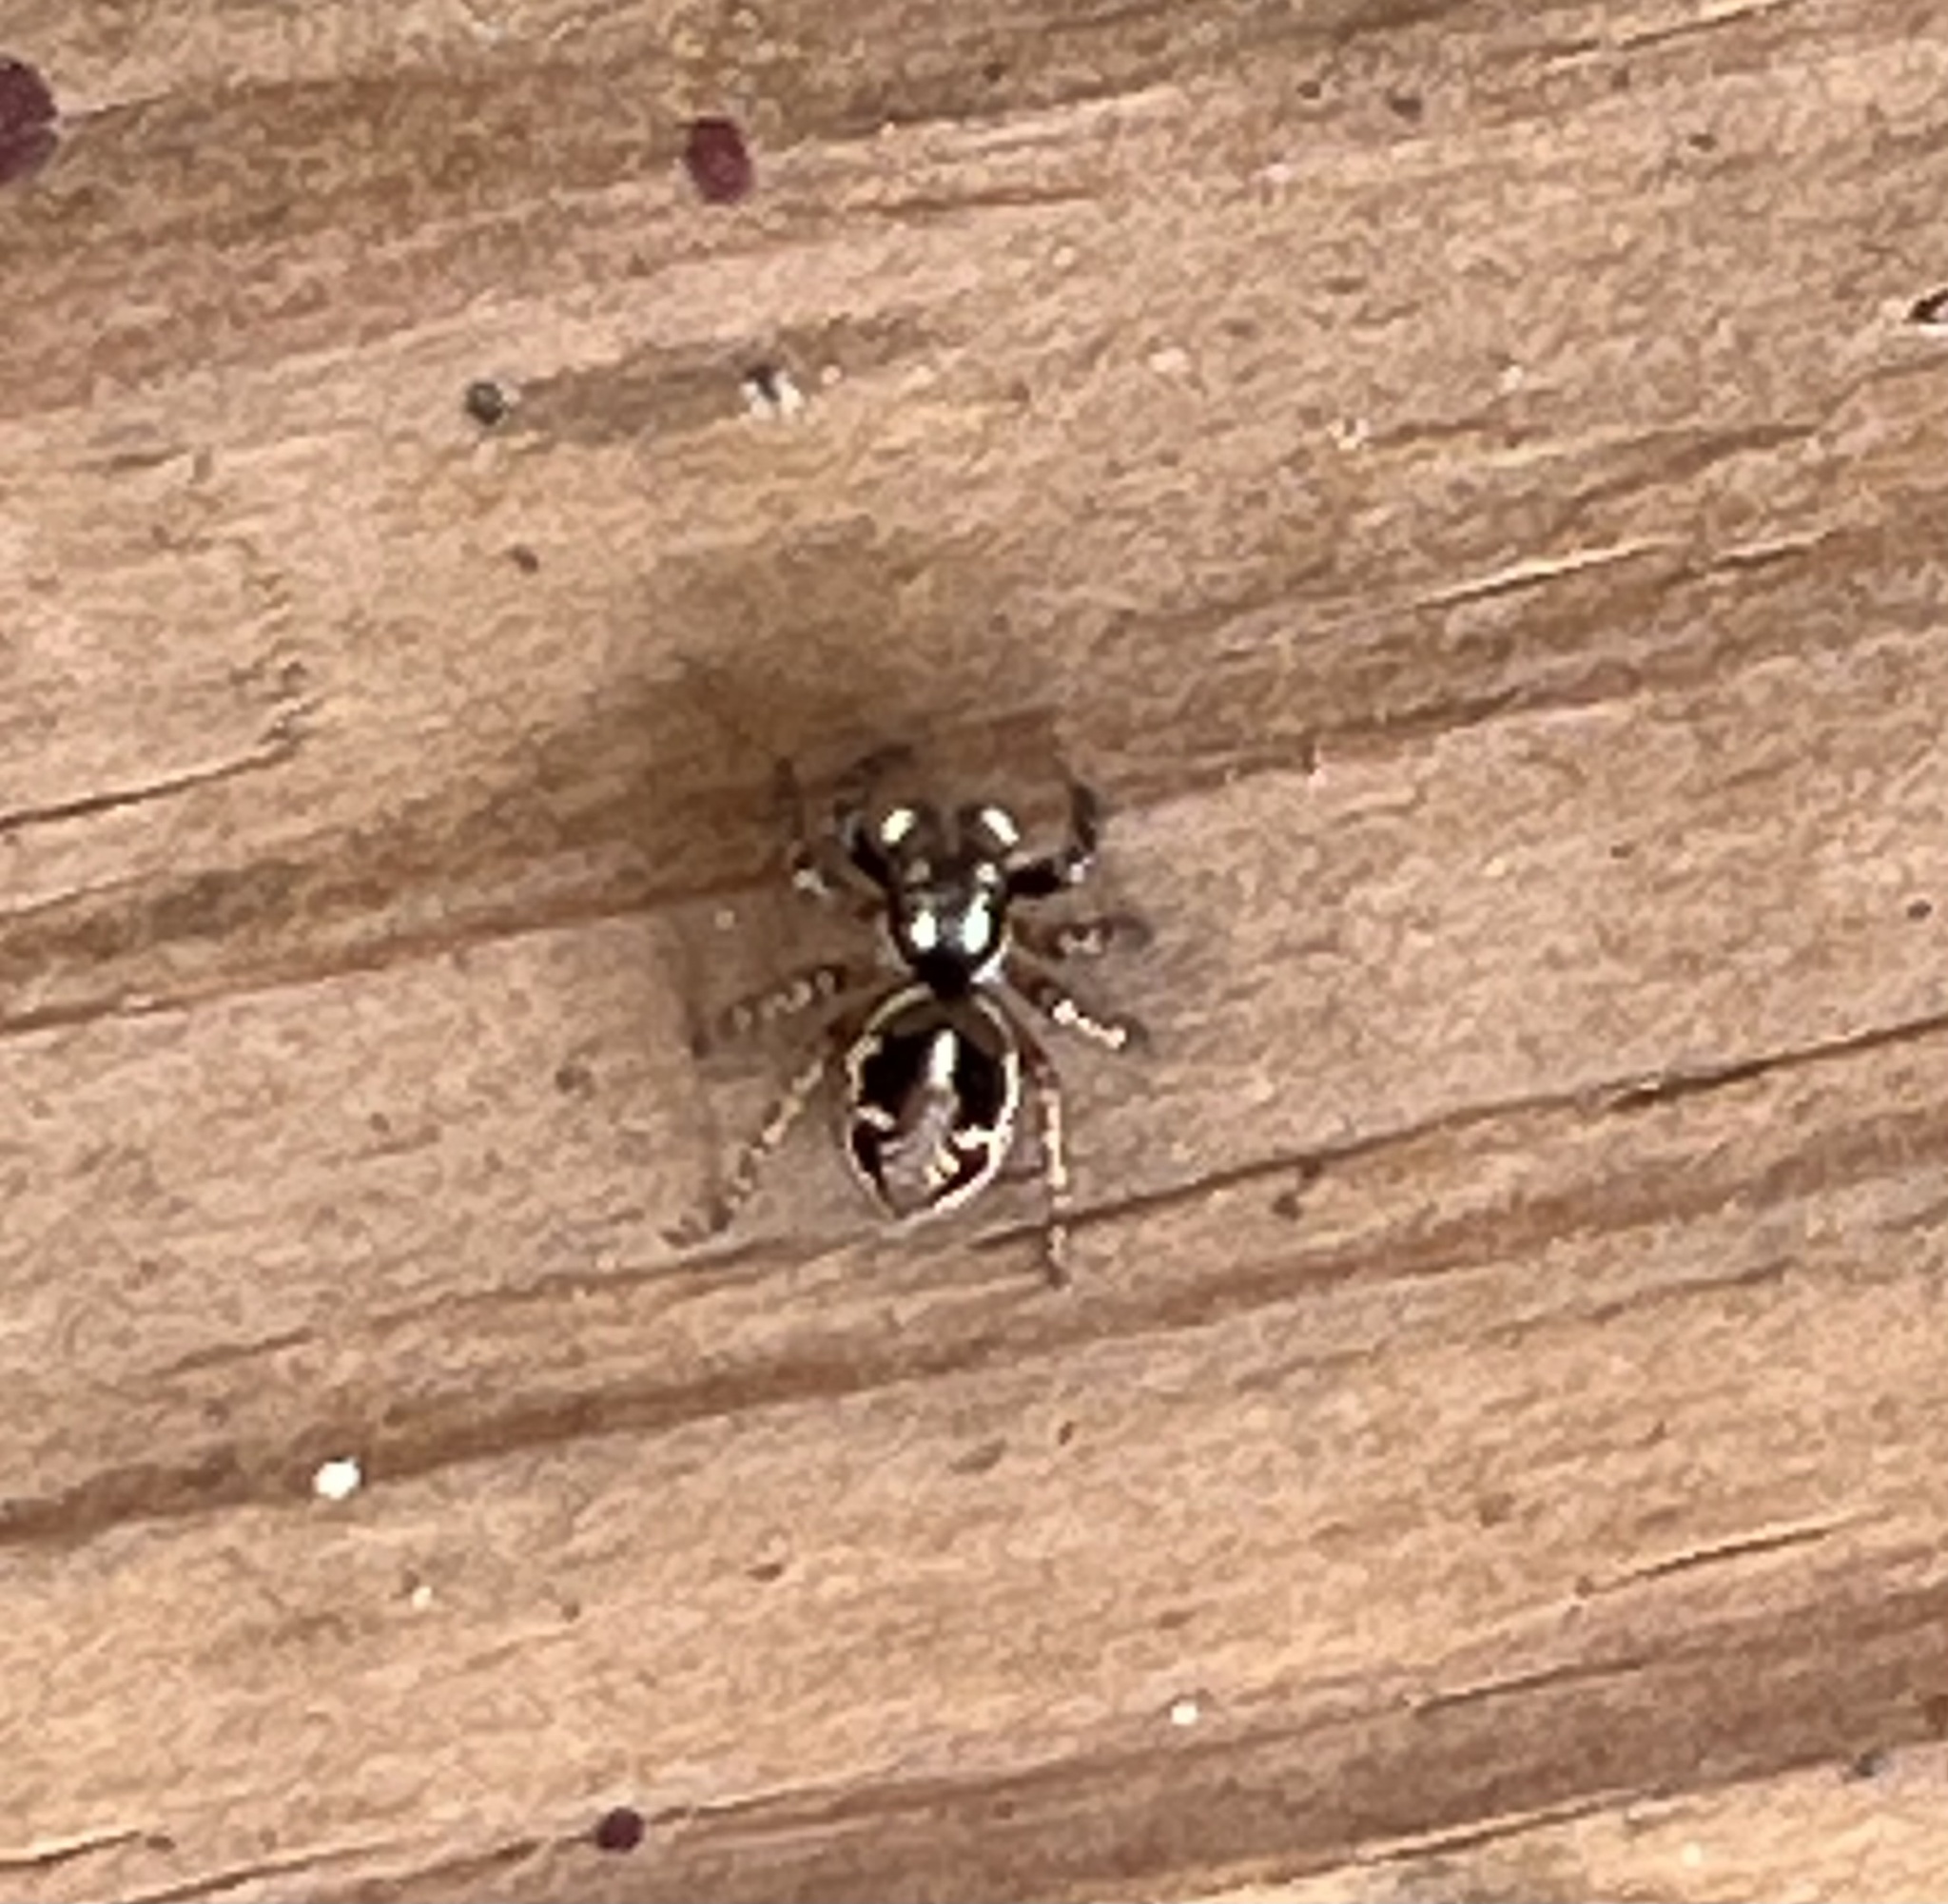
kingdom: Animalia
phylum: Arthropoda
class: Arachnida
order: Araneae
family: Salticidae
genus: Anasaitis
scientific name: Anasaitis canosa
